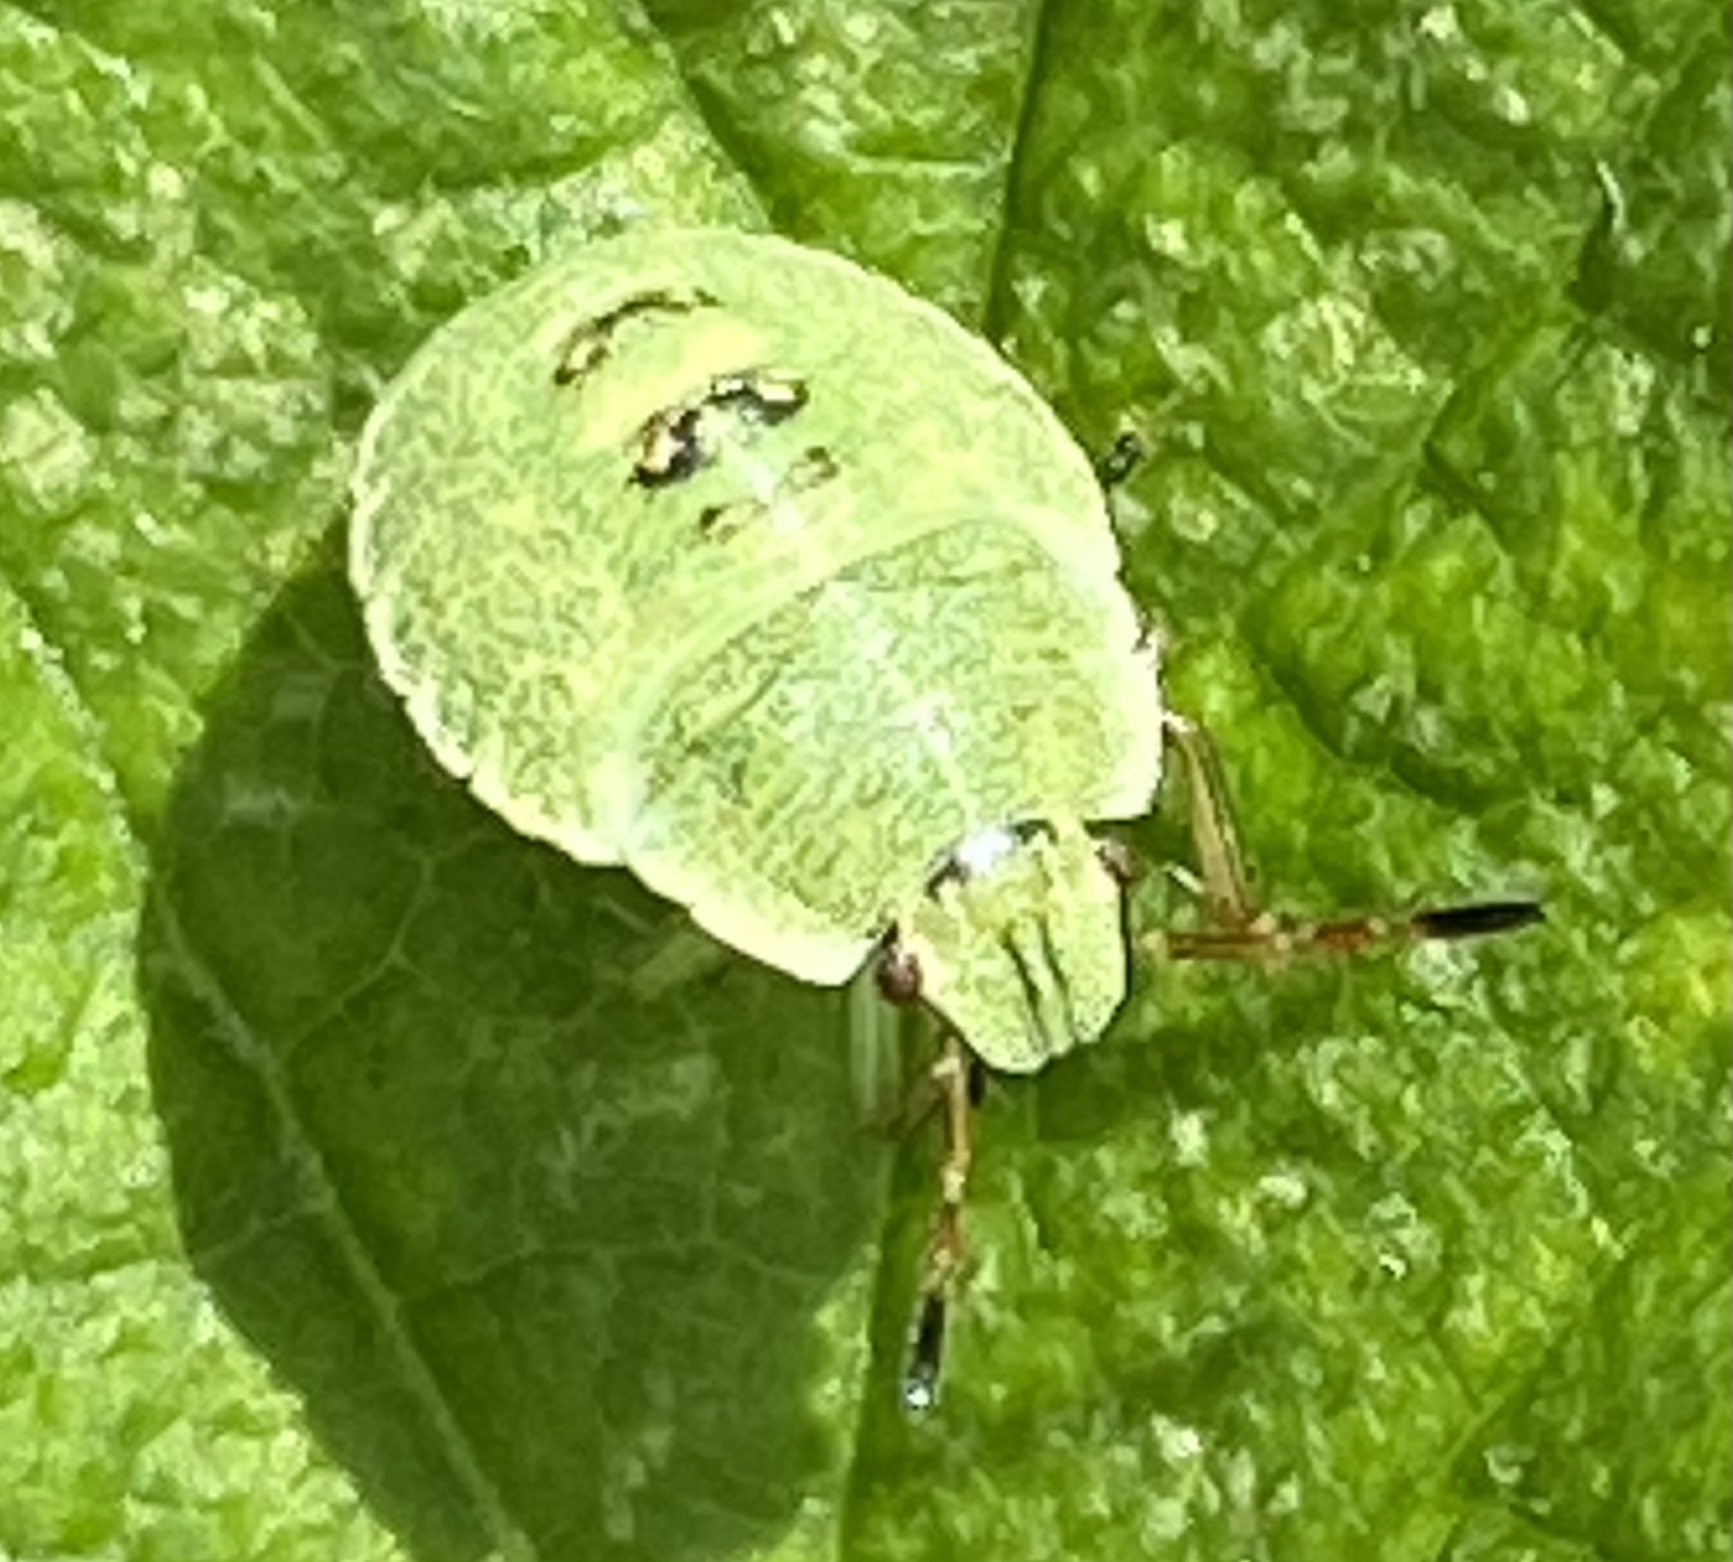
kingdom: Animalia
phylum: Arthropoda
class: Insecta
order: Hemiptera
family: Pentatomidae
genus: Palomena
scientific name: Palomena prasina
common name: Green shieldbug
